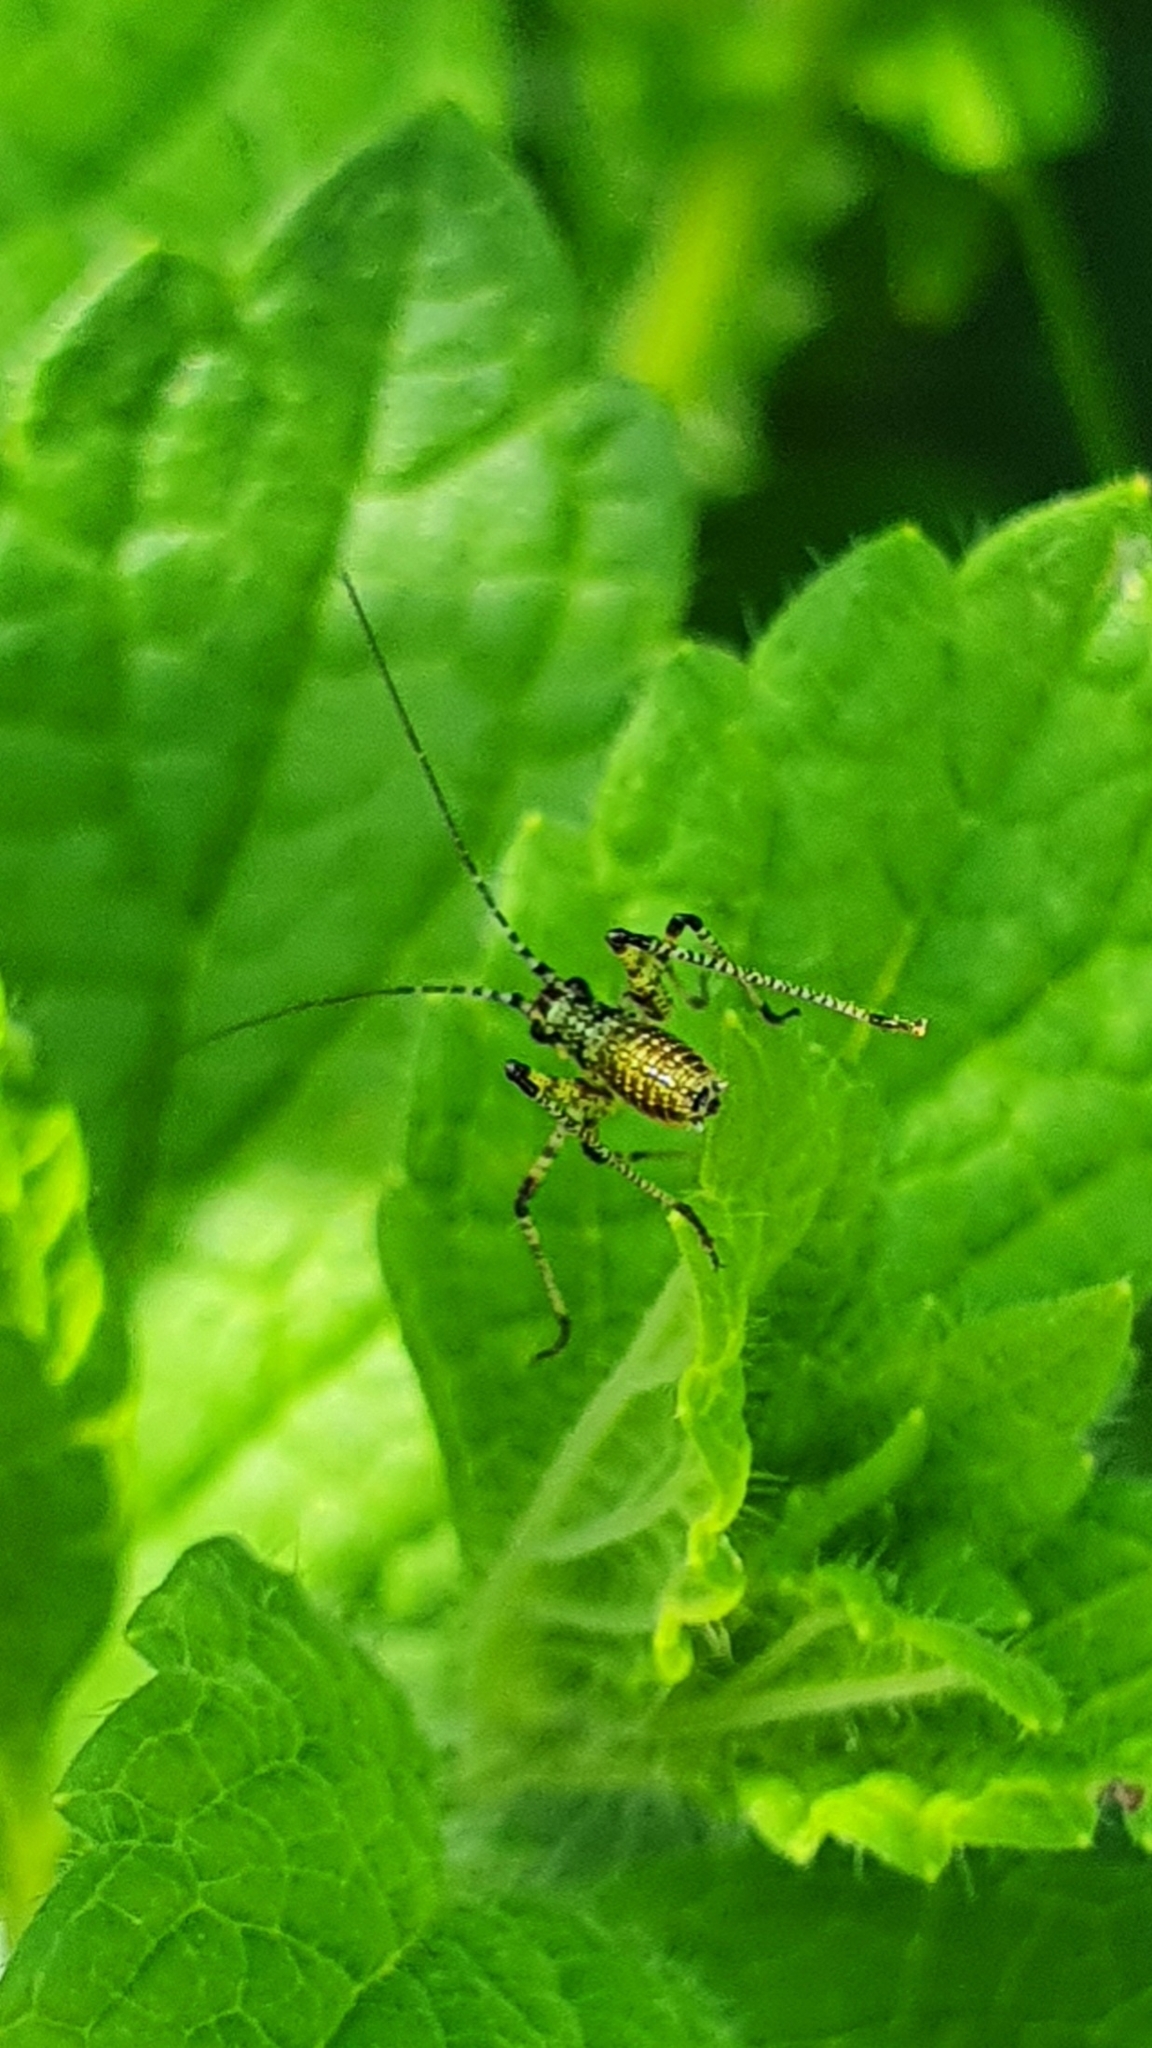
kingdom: Animalia
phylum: Arthropoda
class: Insecta
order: Orthoptera
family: Tettigoniidae
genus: Phaneroptera
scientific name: Phaneroptera nana
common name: Southern sickle bush-cricket
